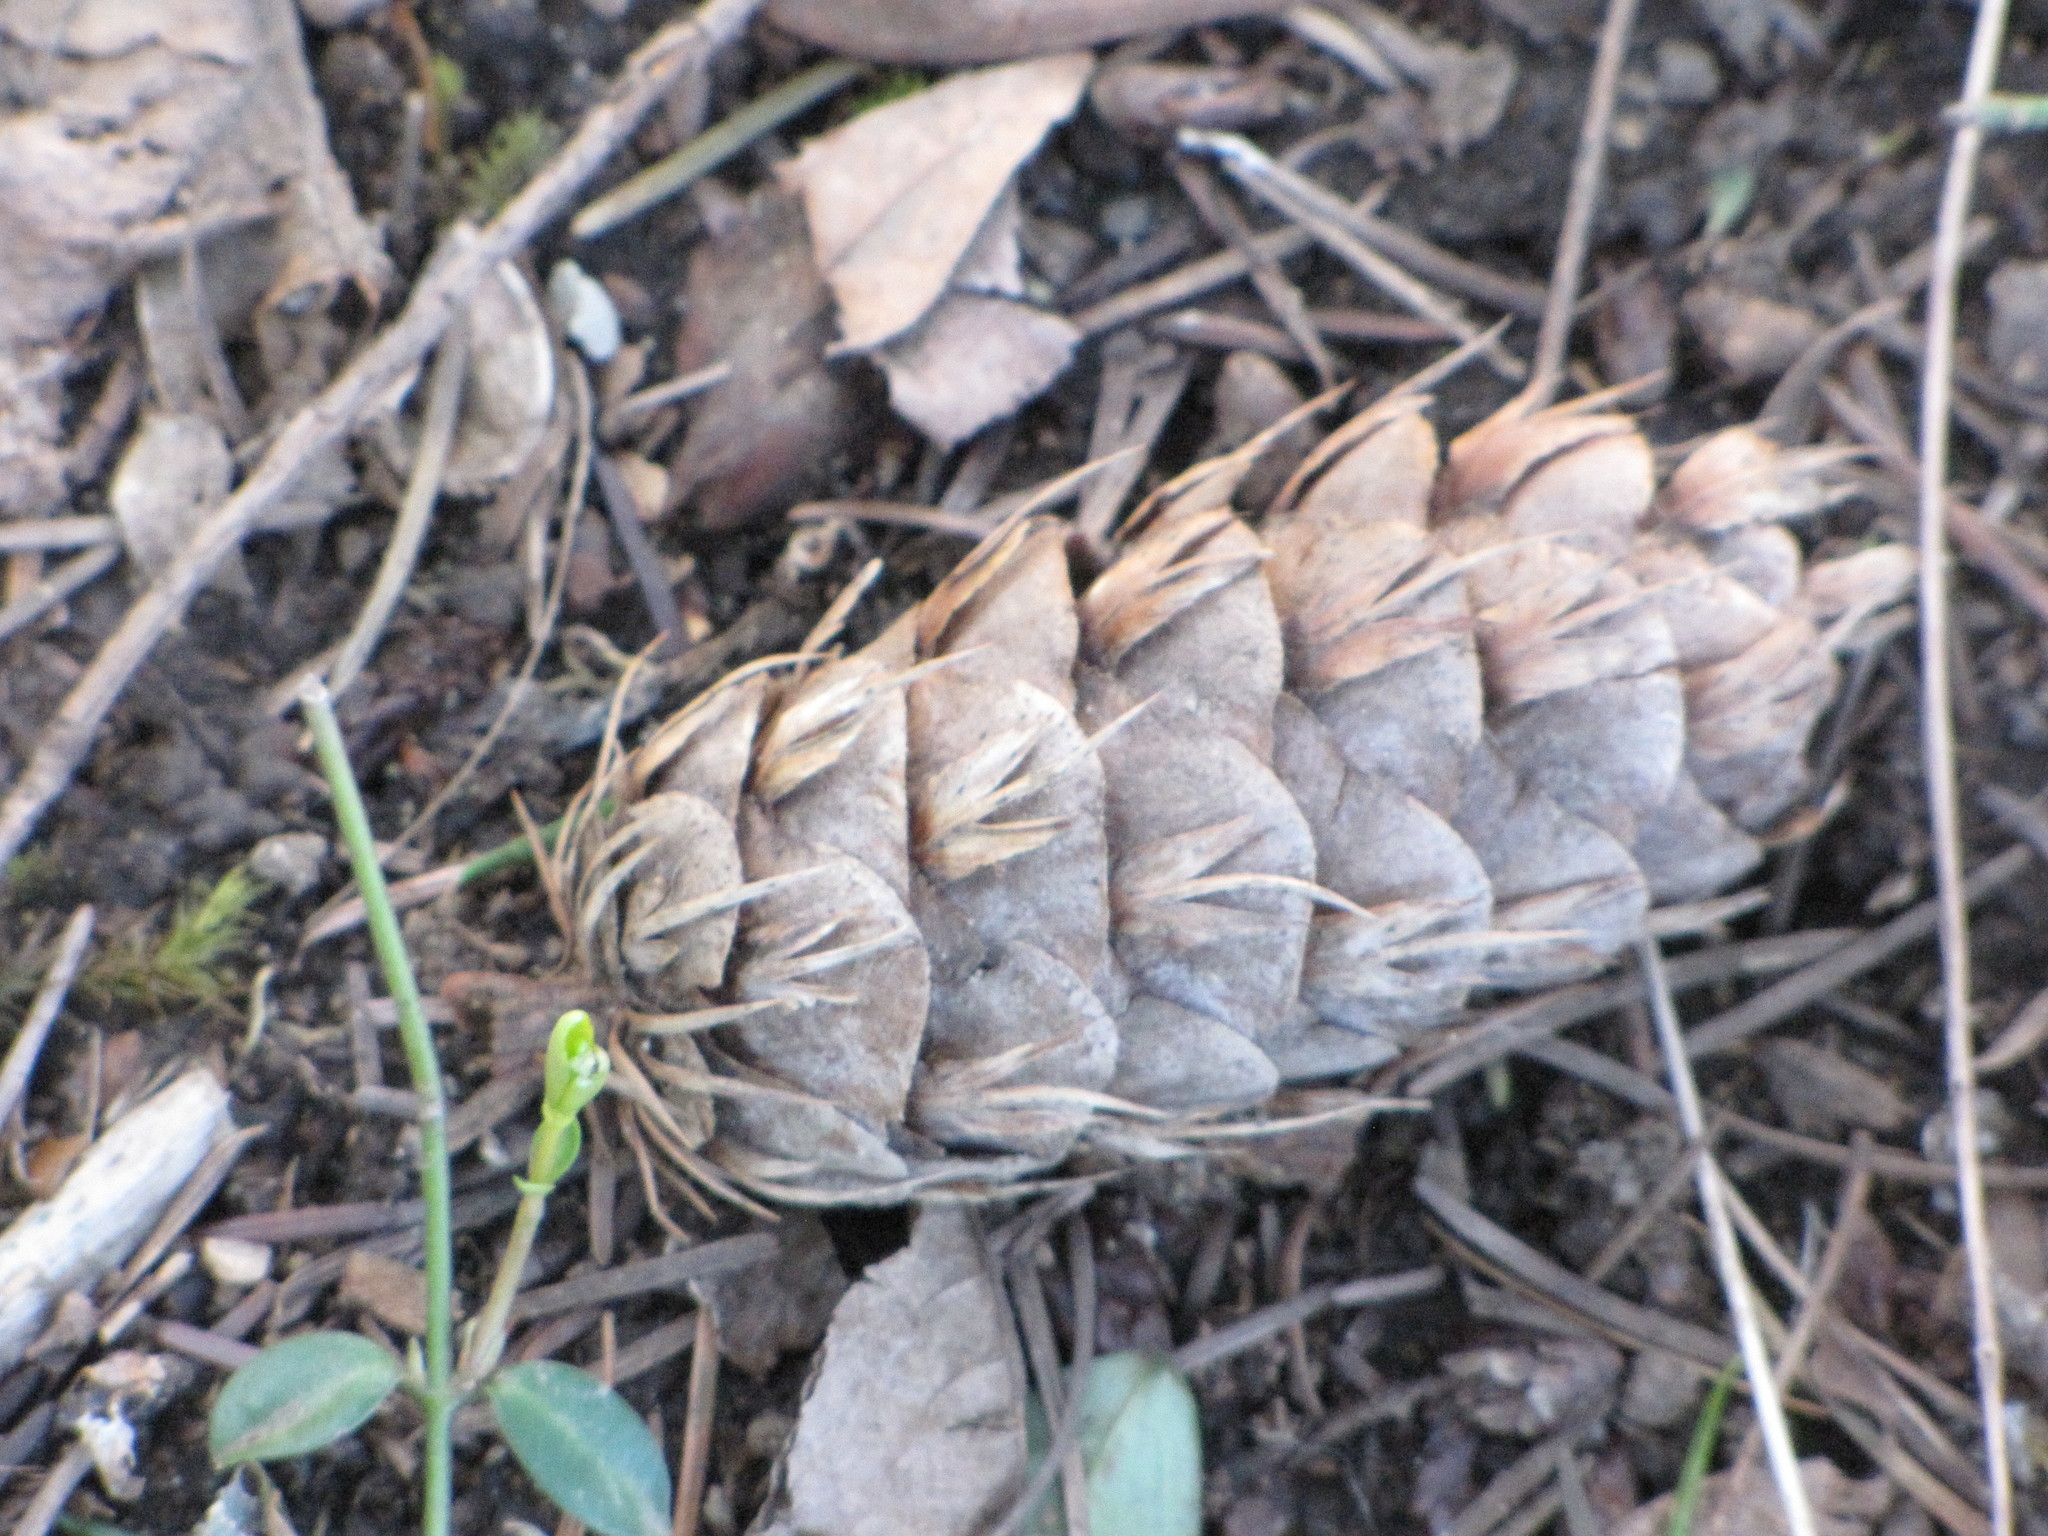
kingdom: Plantae
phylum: Tracheophyta
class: Pinopsida
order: Pinales
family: Pinaceae
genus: Pseudotsuga
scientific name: Pseudotsuga menziesii
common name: Douglas fir
